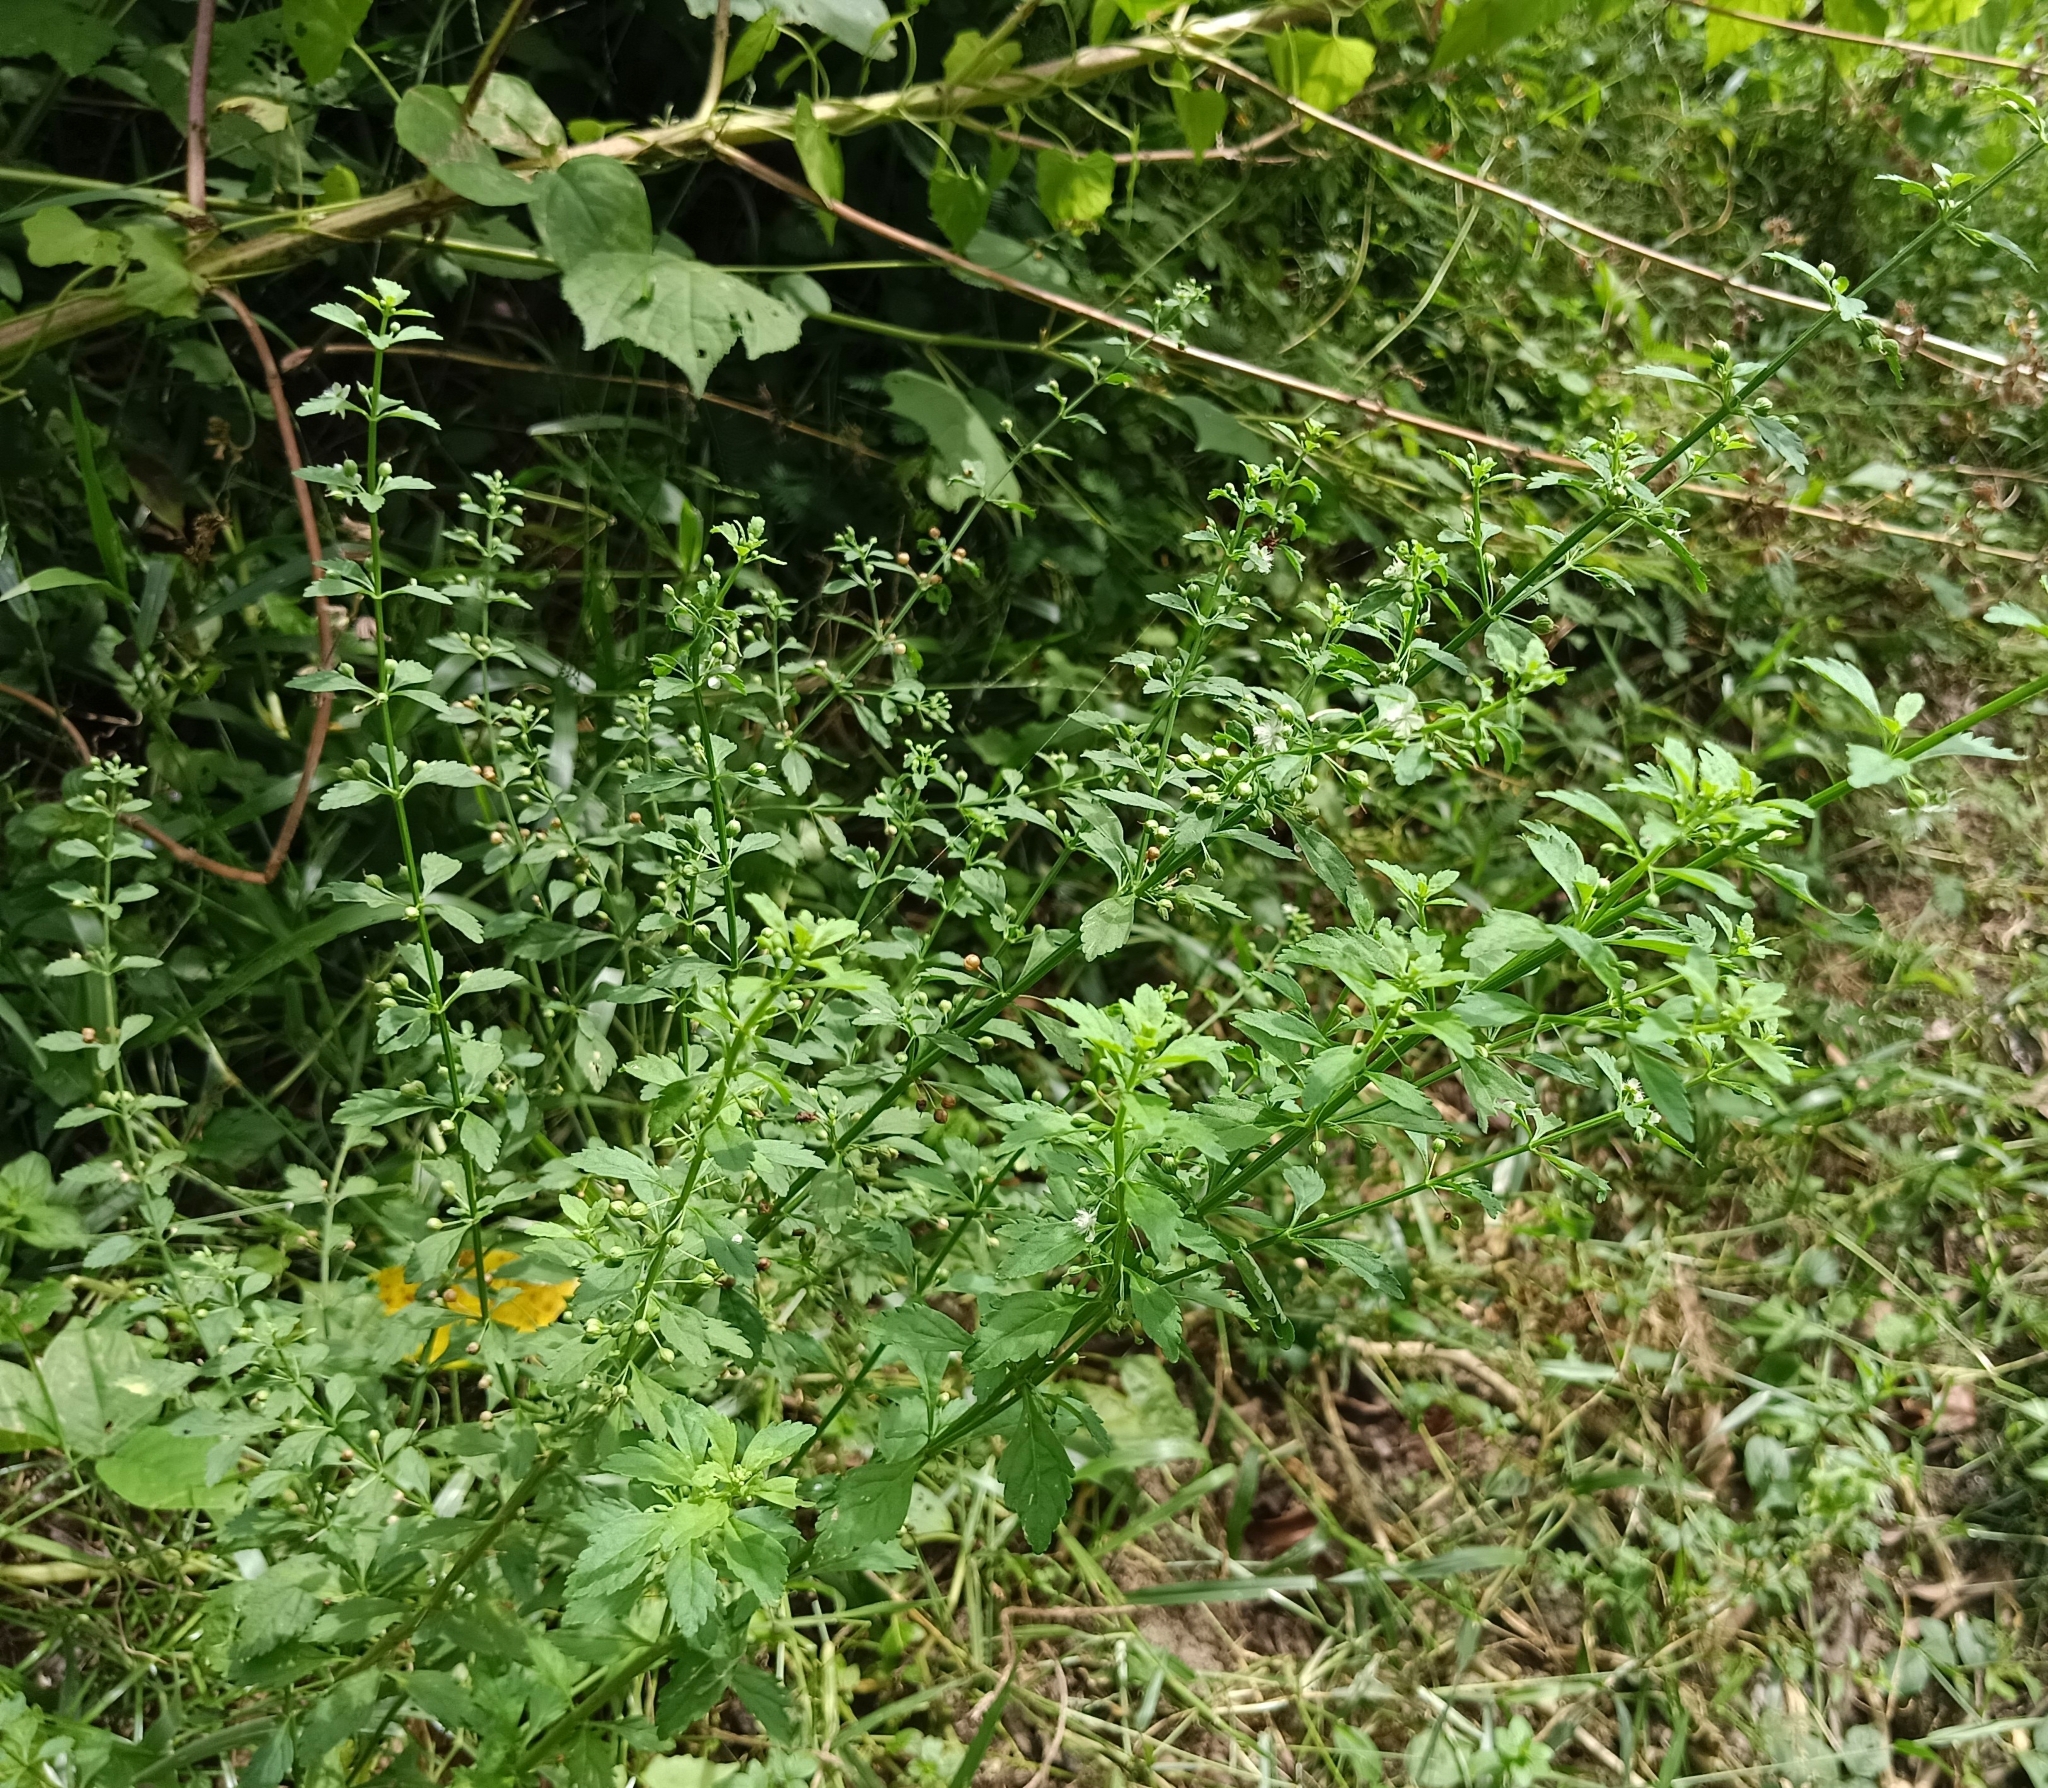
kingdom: Plantae
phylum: Tracheophyta
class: Magnoliopsida
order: Lamiales
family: Plantaginaceae
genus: Scoparia
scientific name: Scoparia dulcis
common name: Scoparia-weed
